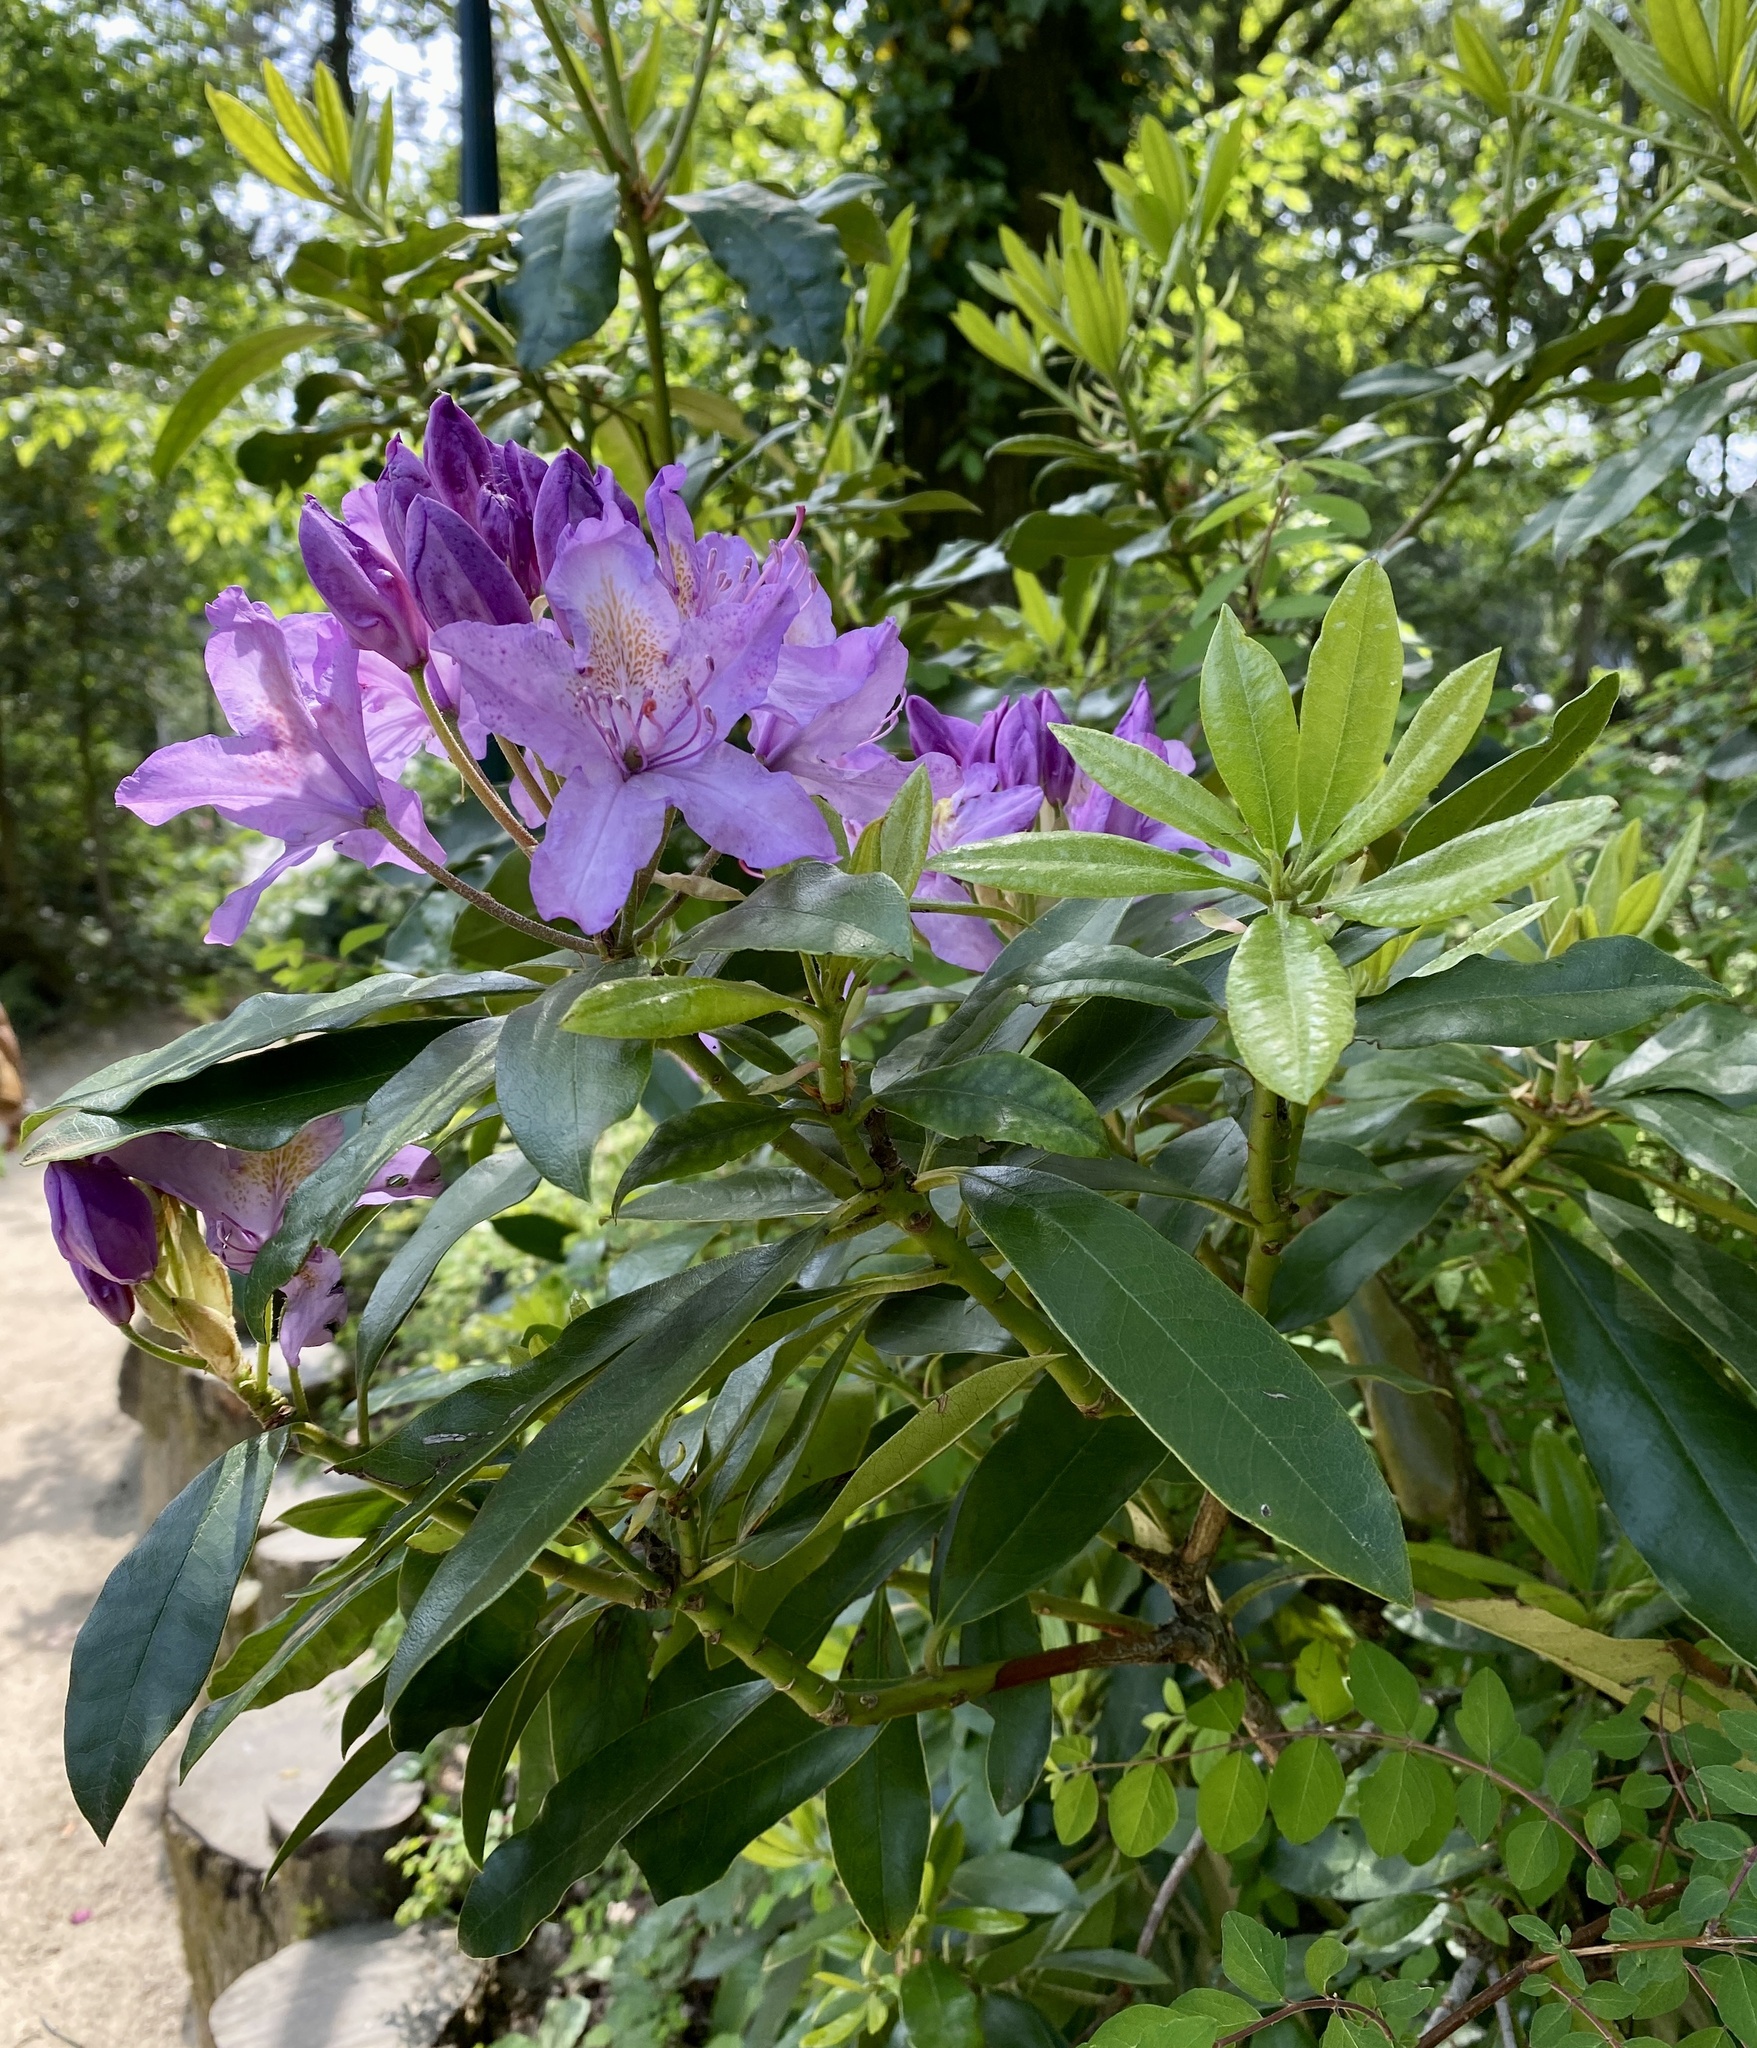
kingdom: Plantae
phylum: Tracheophyta
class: Magnoliopsida
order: Ericales
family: Ericaceae
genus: Rhododendron
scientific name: Rhododendron ponticum
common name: Rhododendron
